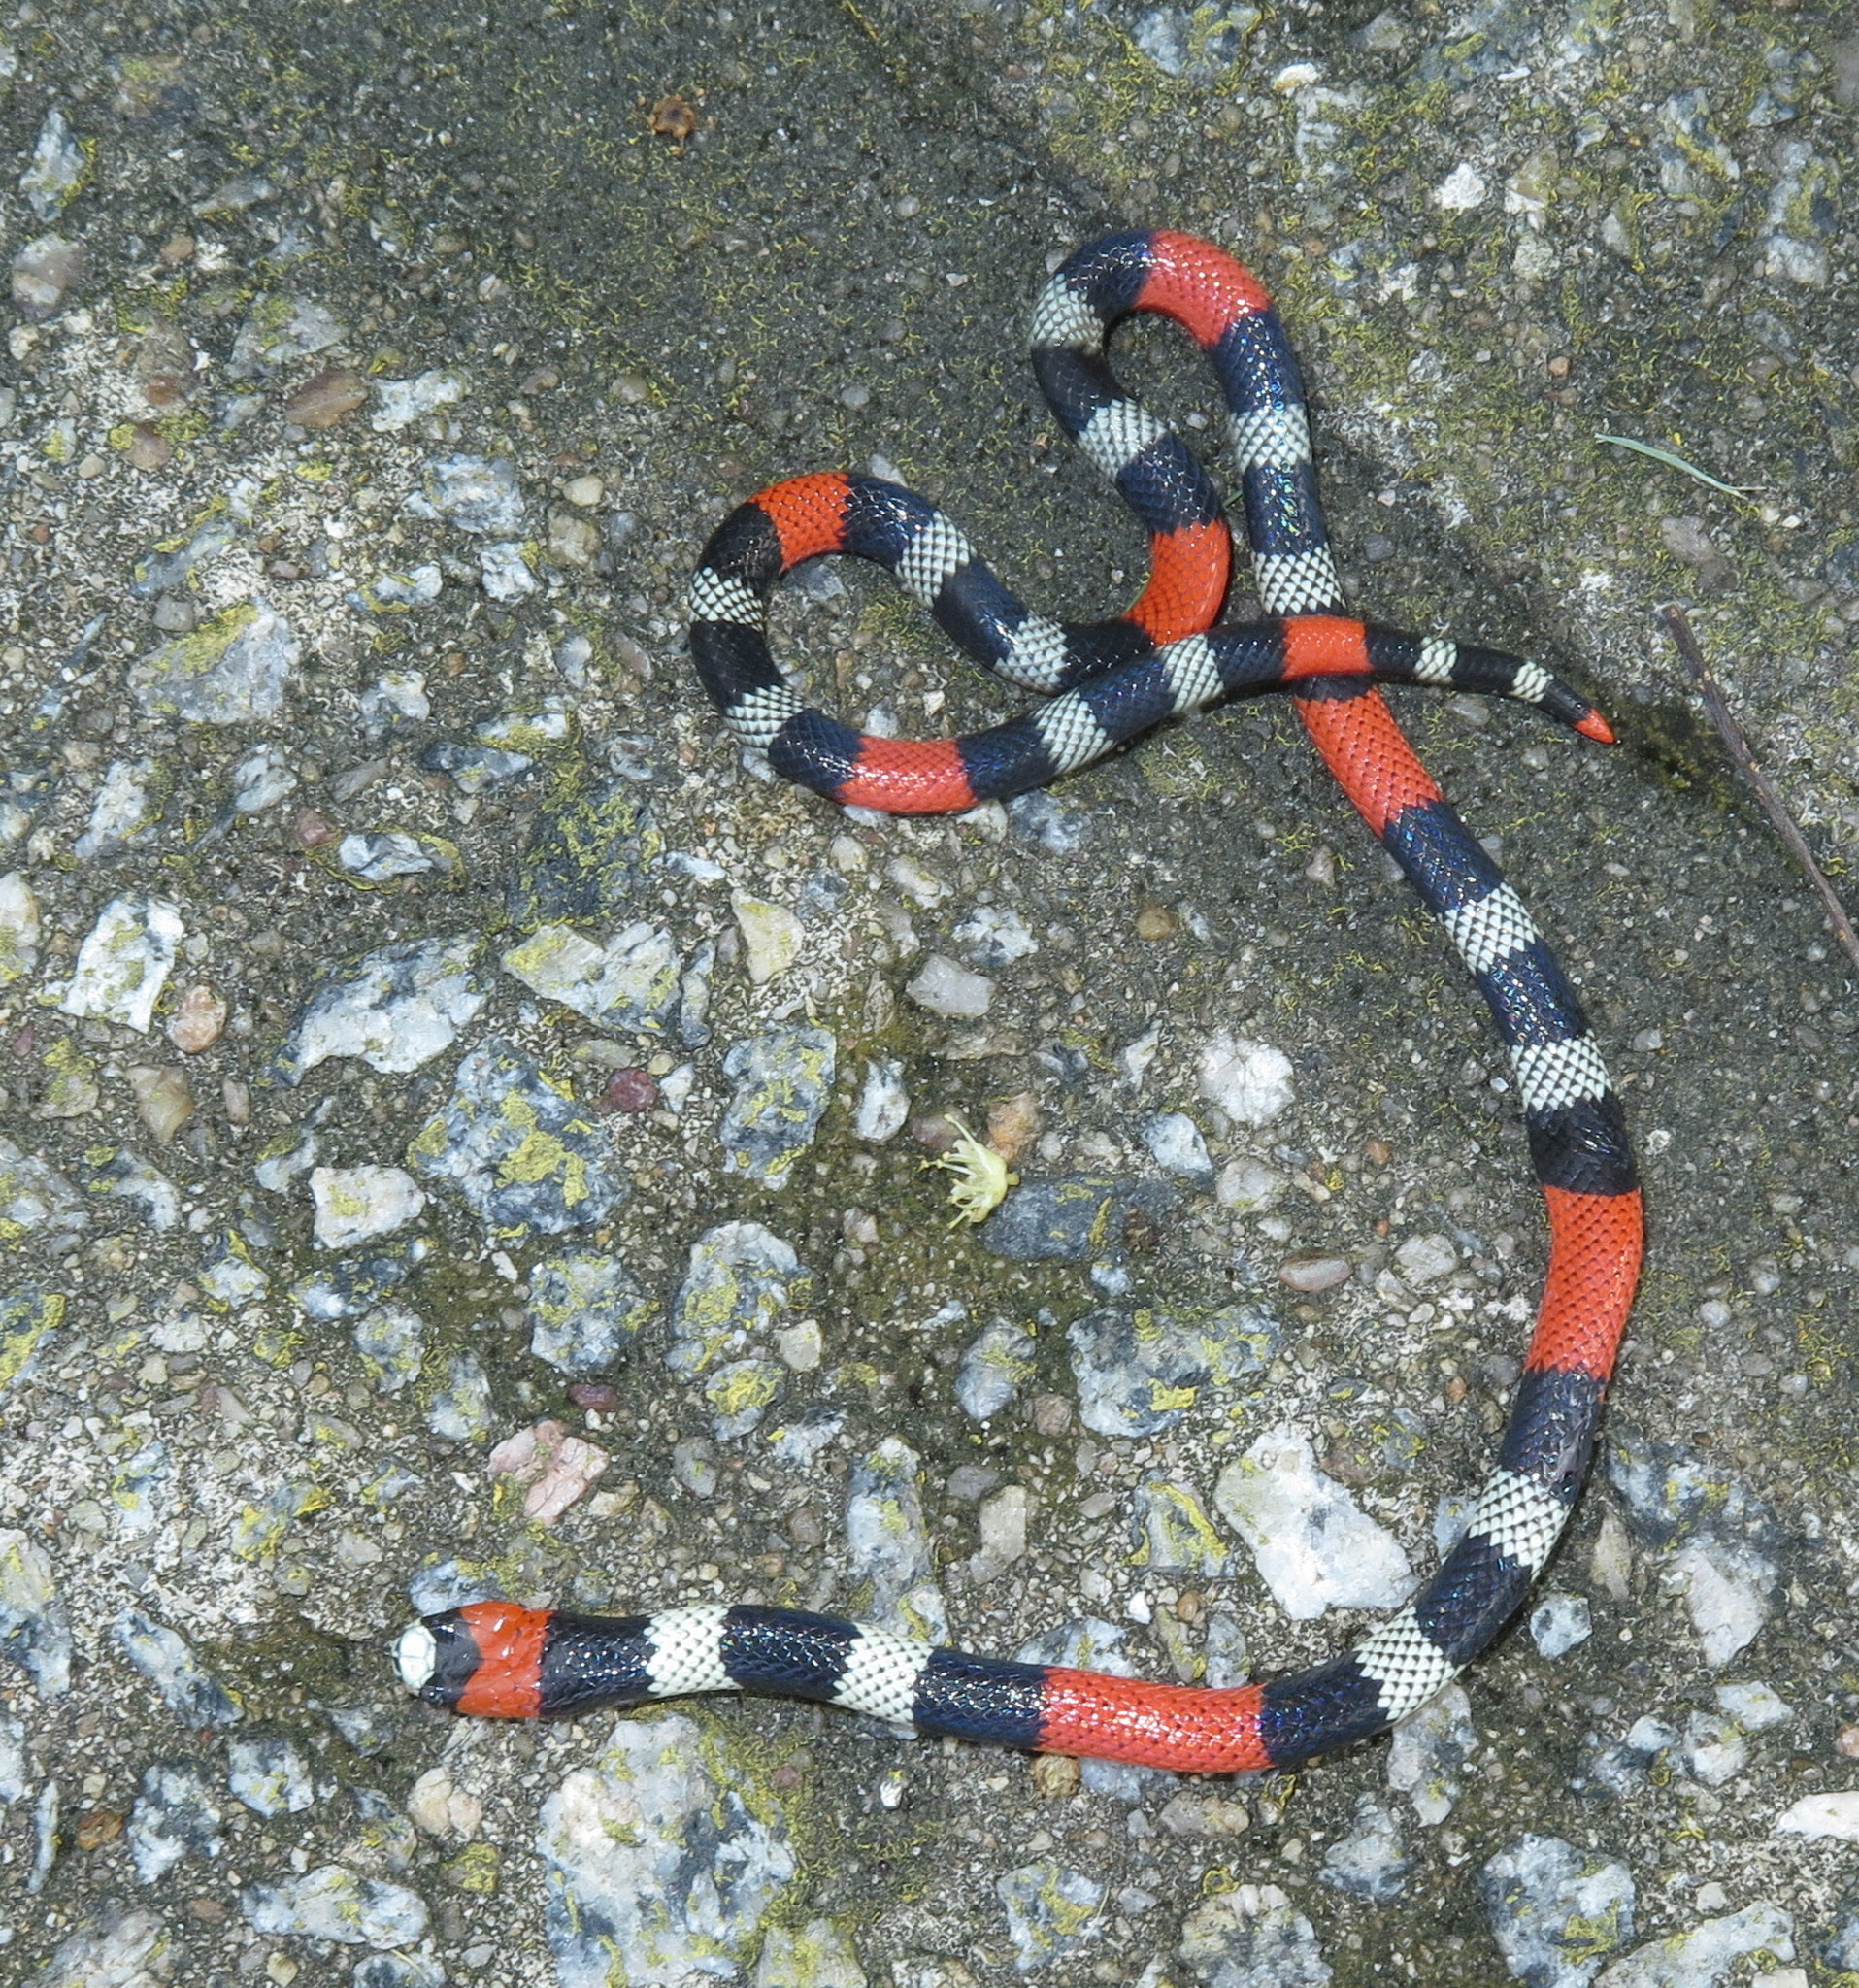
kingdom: Animalia
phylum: Chordata
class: Squamata
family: Elapidae
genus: Micrurus
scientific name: Micrurus ibiboboca
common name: Caatinga coral snake
